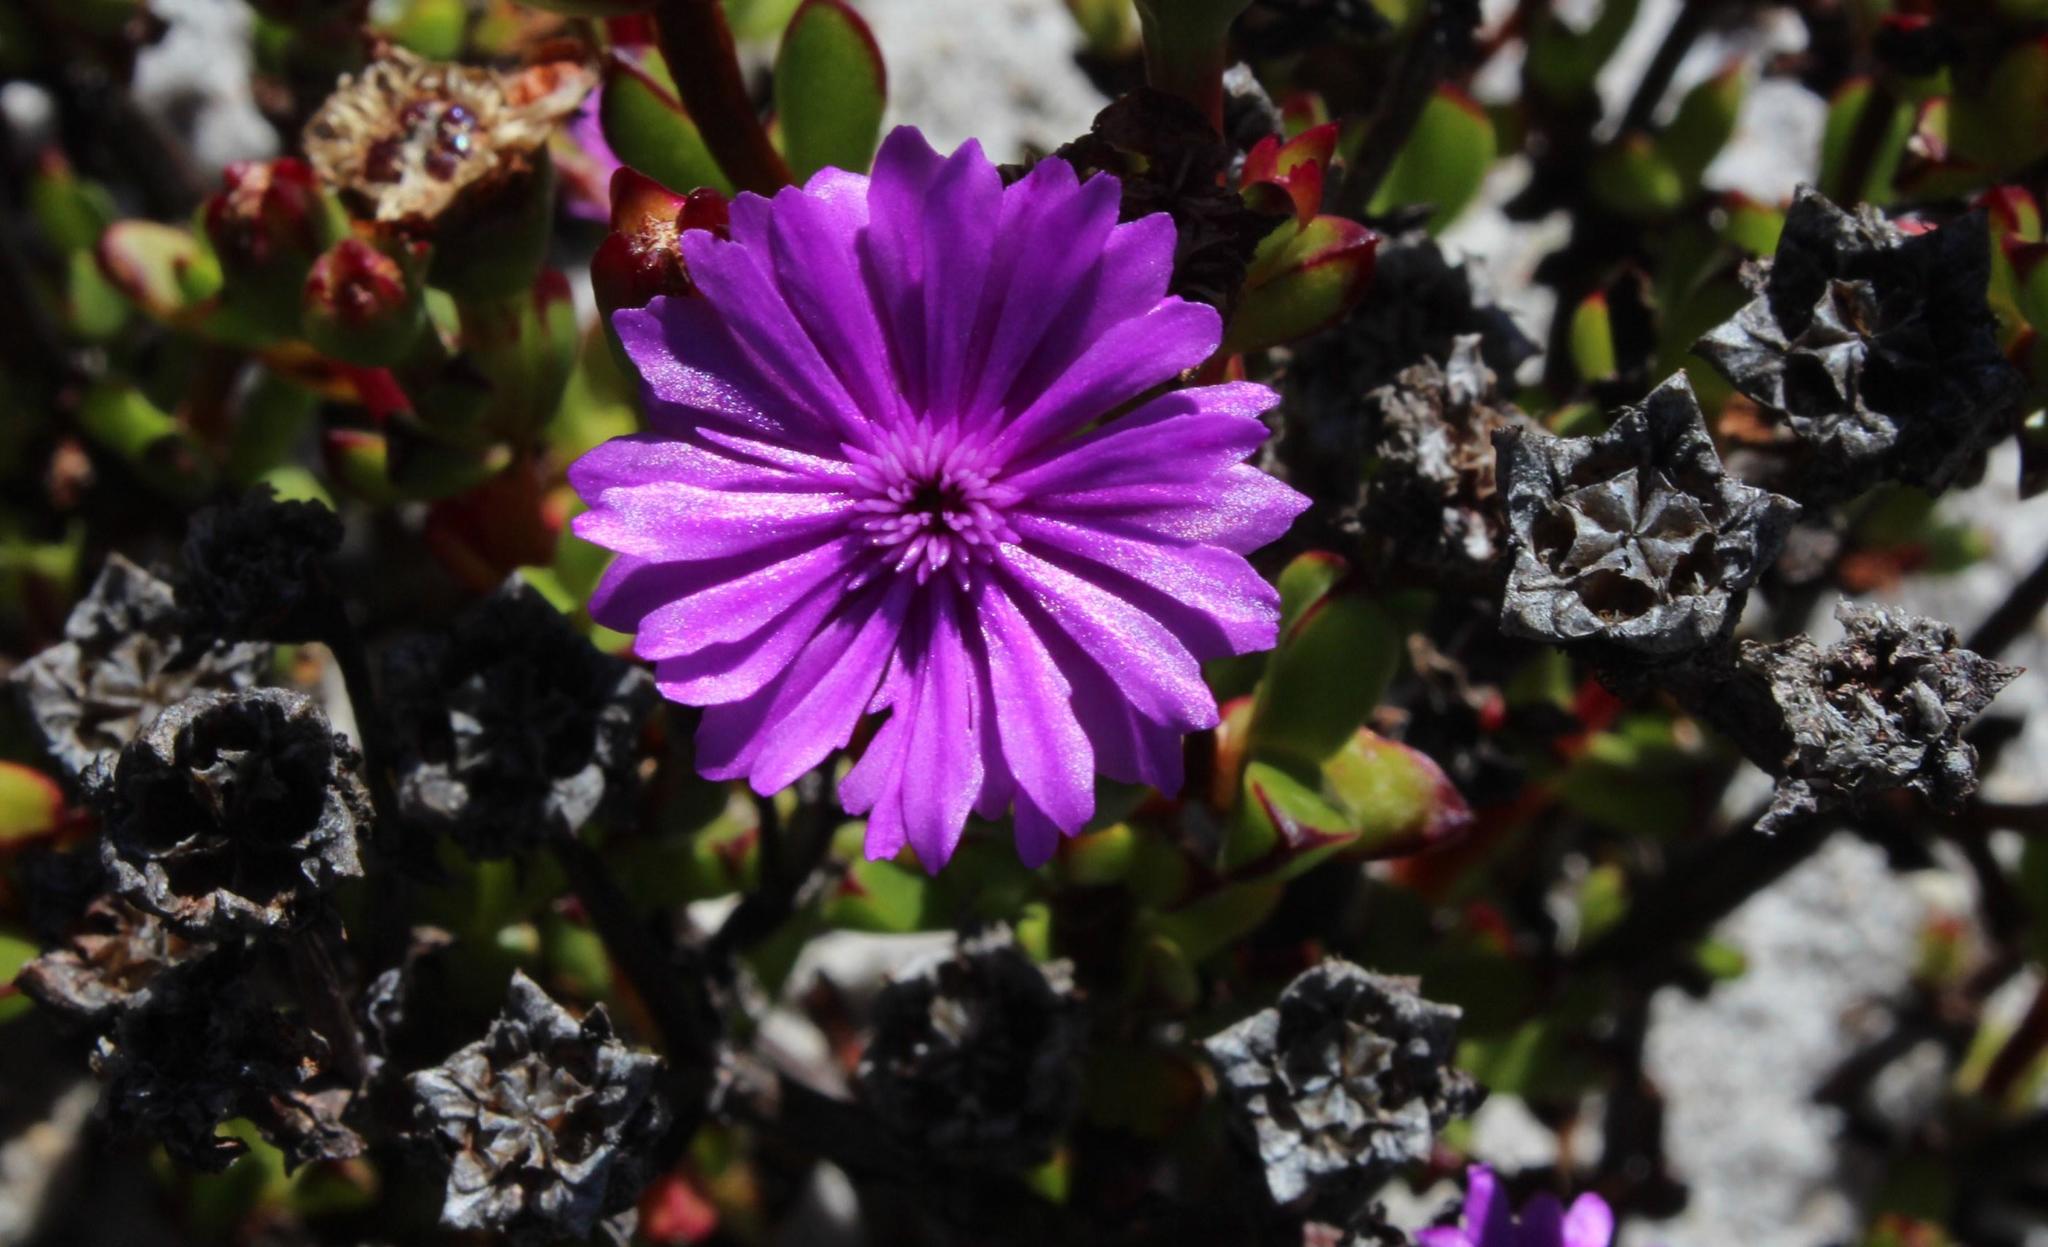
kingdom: Plantae
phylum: Tracheophyta
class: Magnoliopsida
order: Caryophyllales
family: Aizoaceae
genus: Erepsia
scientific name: Erepsia inclaudens
